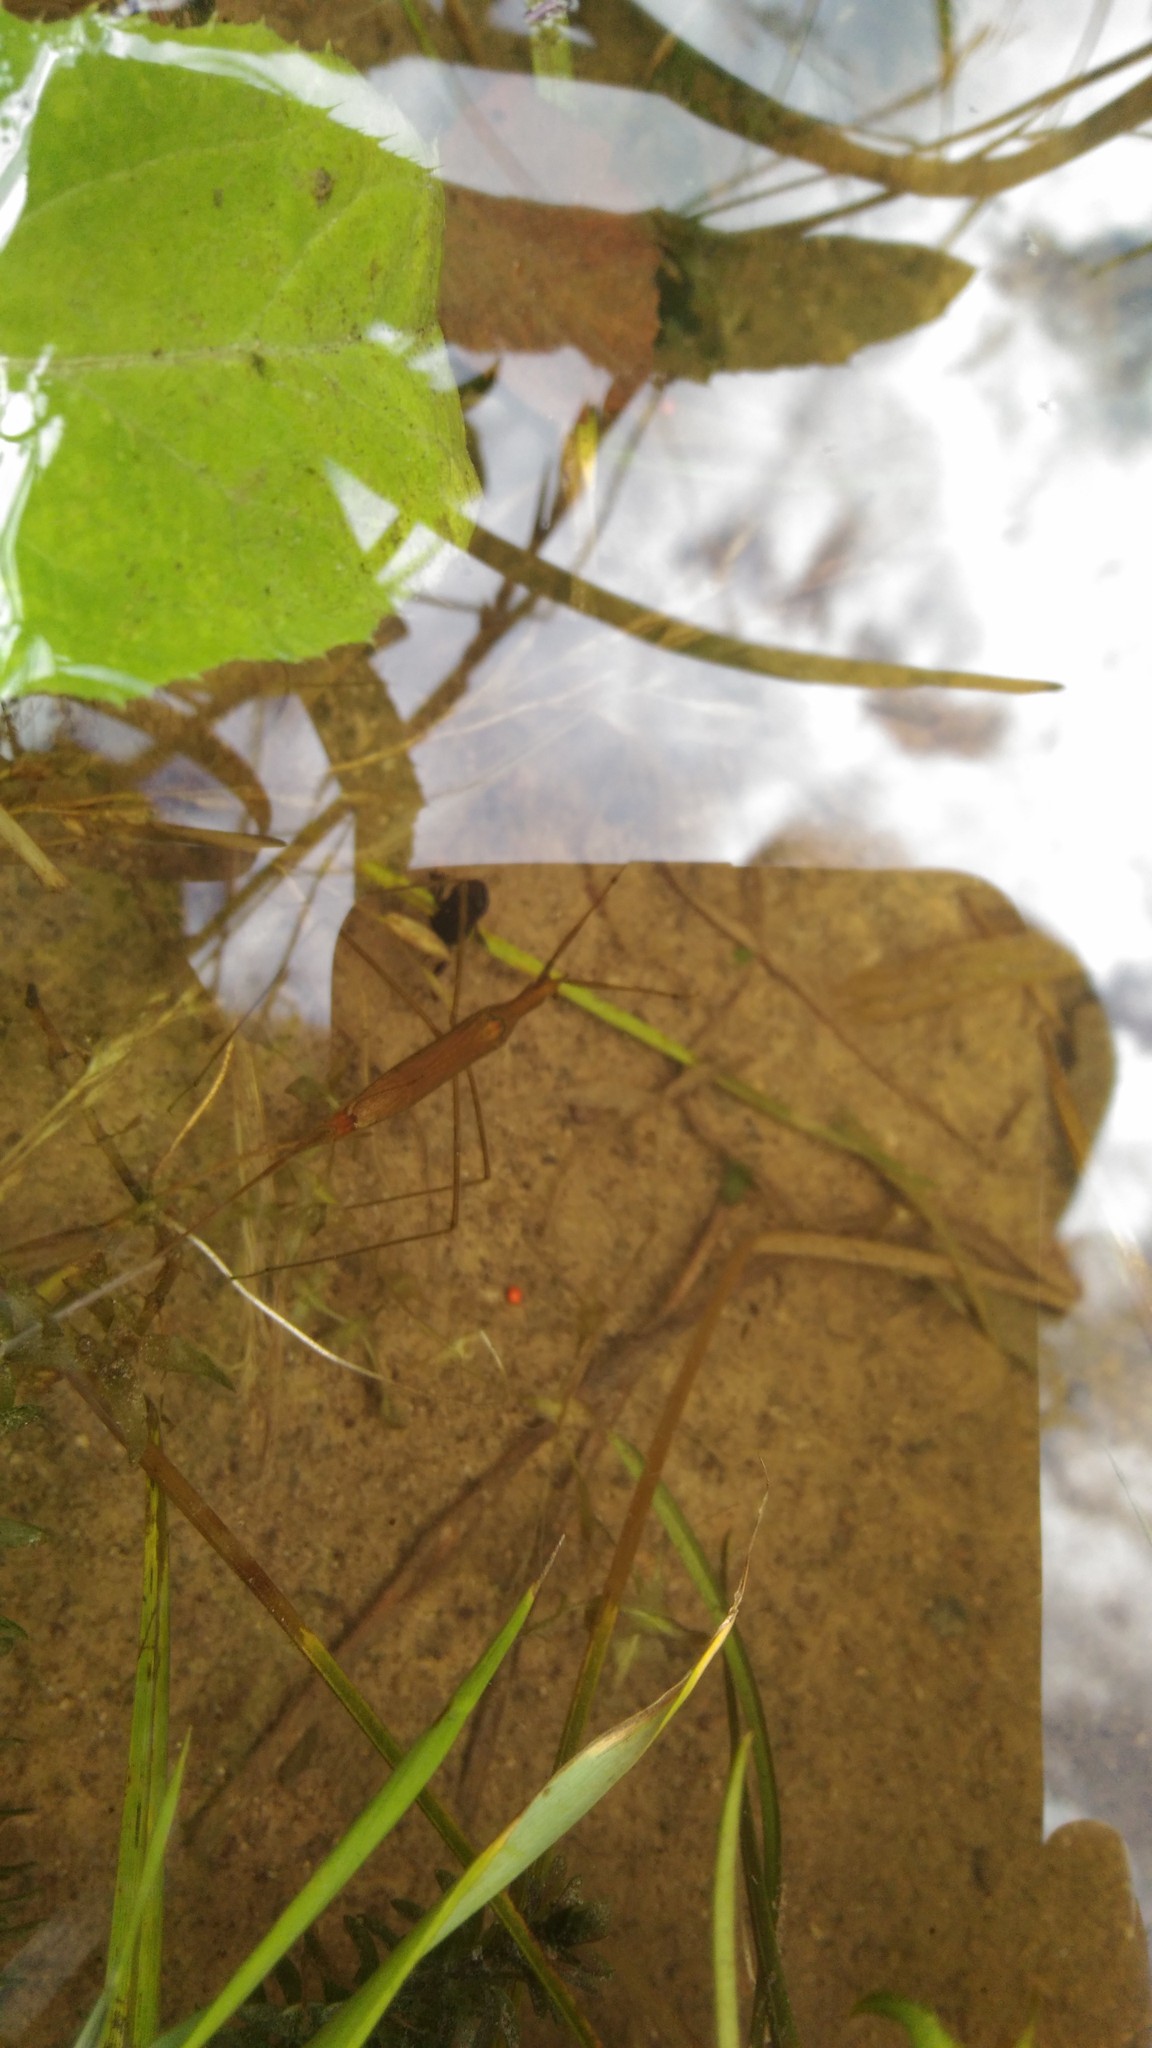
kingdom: Animalia
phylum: Arthropoda
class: Insecta
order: Hemiptera
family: Nepidae
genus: Ranatra
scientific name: Ranatra linearis
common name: Water stick insect
